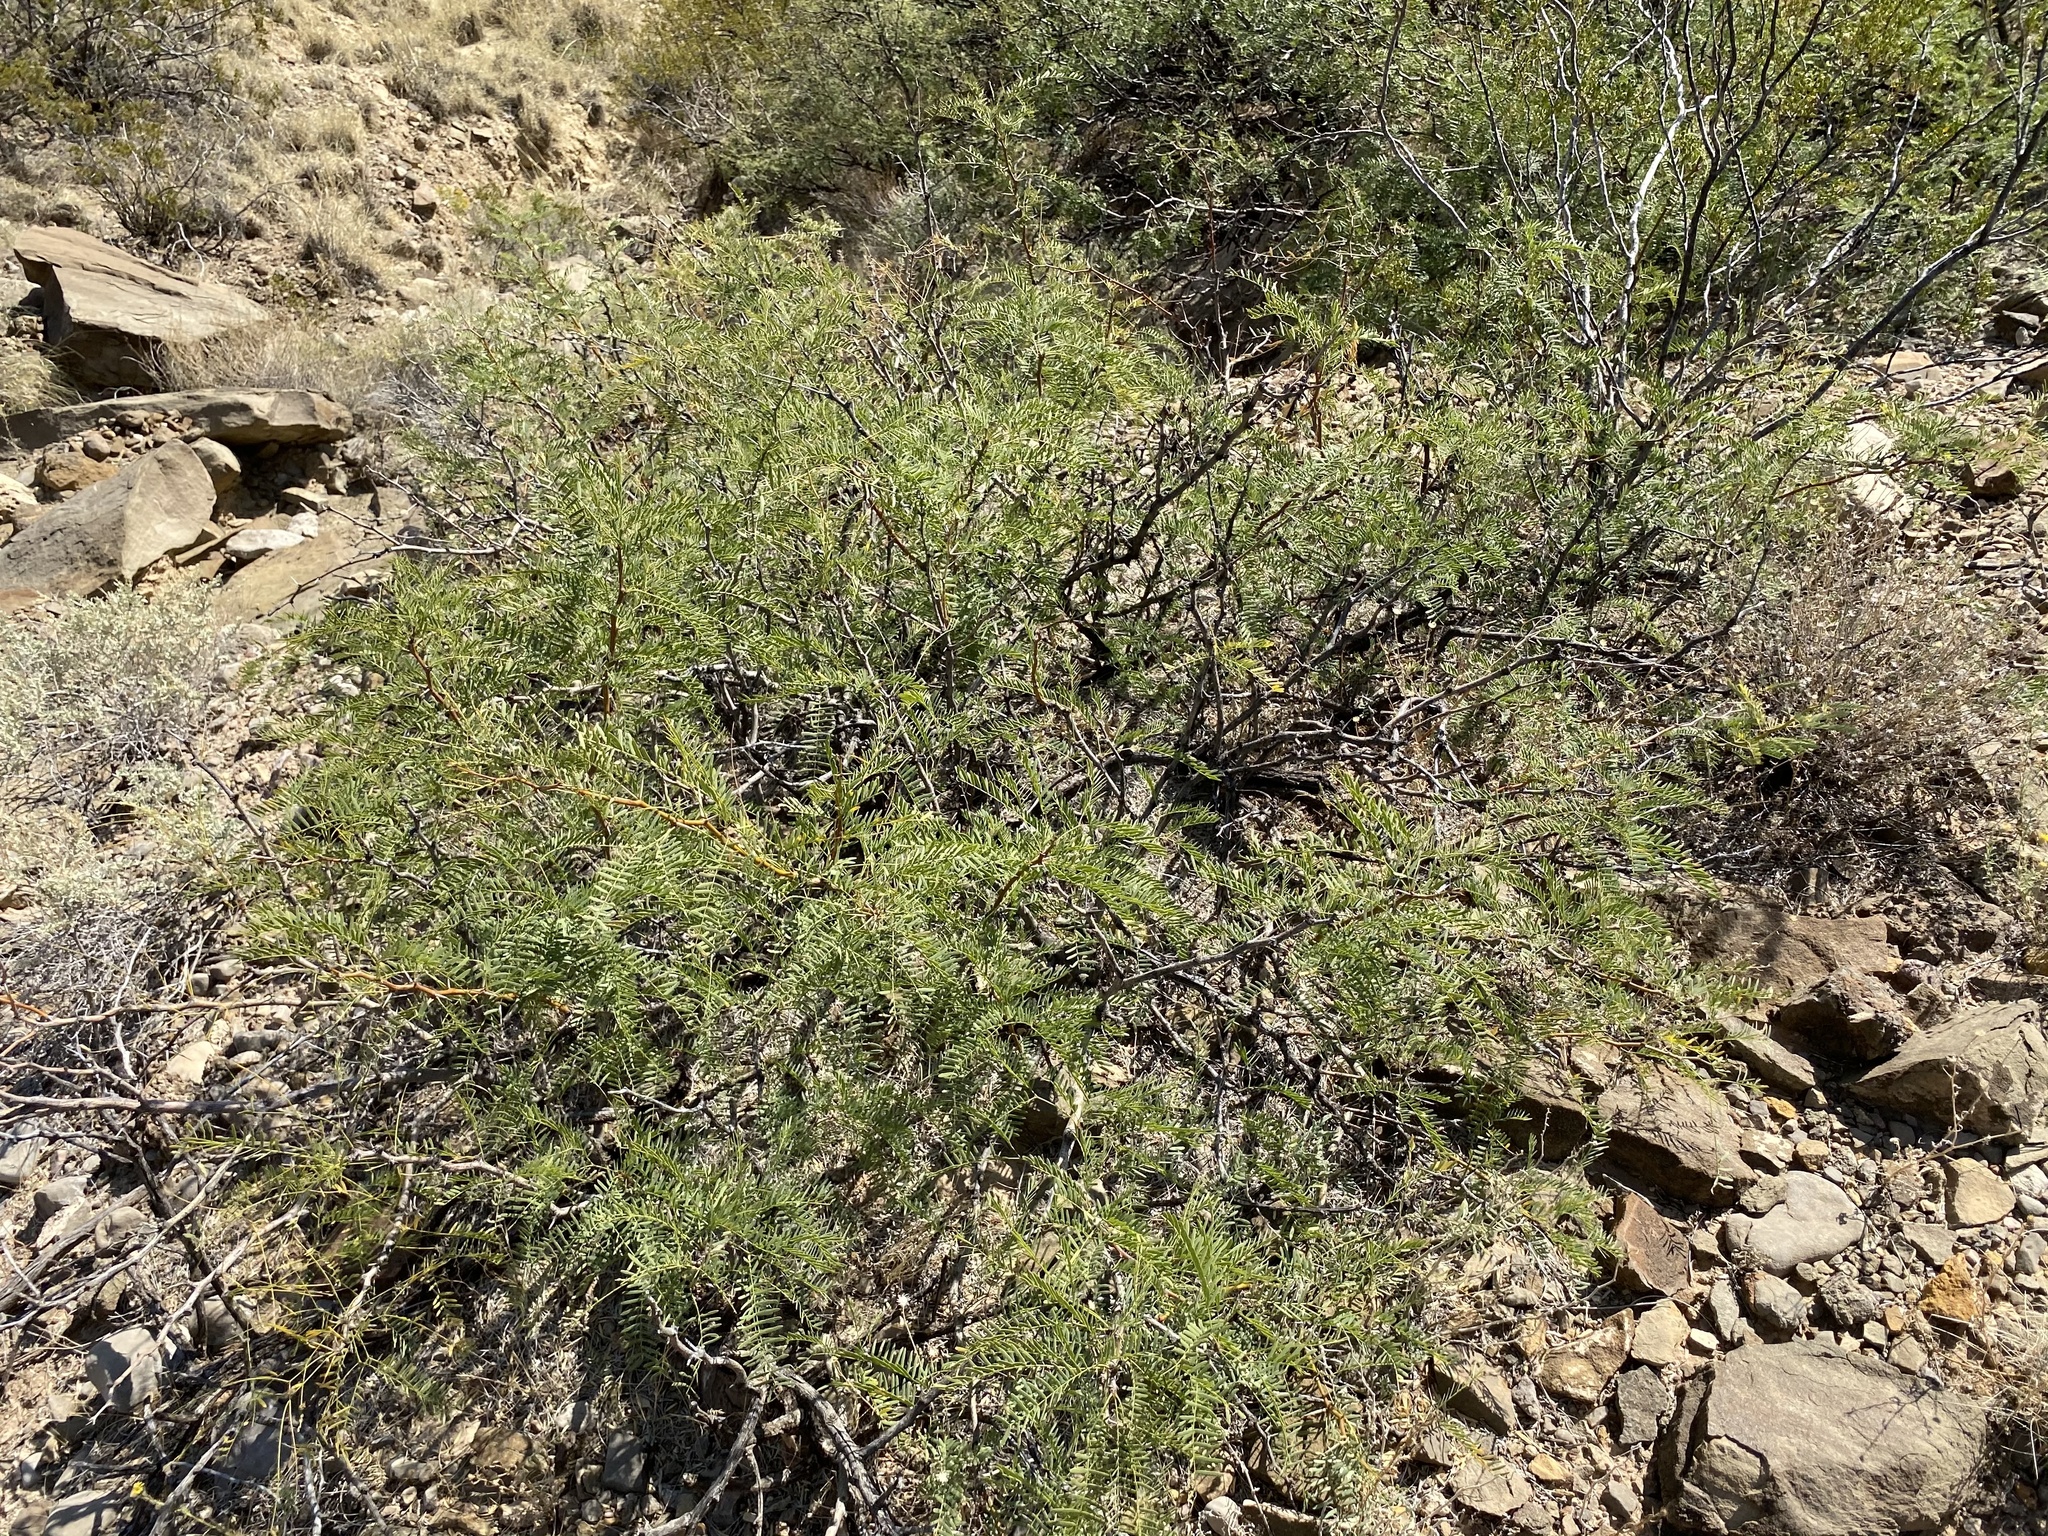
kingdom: Plantae
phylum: Tracheophyta
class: Magnoliopsida
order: Fabales
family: Fabaceae
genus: Prosopis
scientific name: Prosopis glandulosa
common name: Honey mesquite
